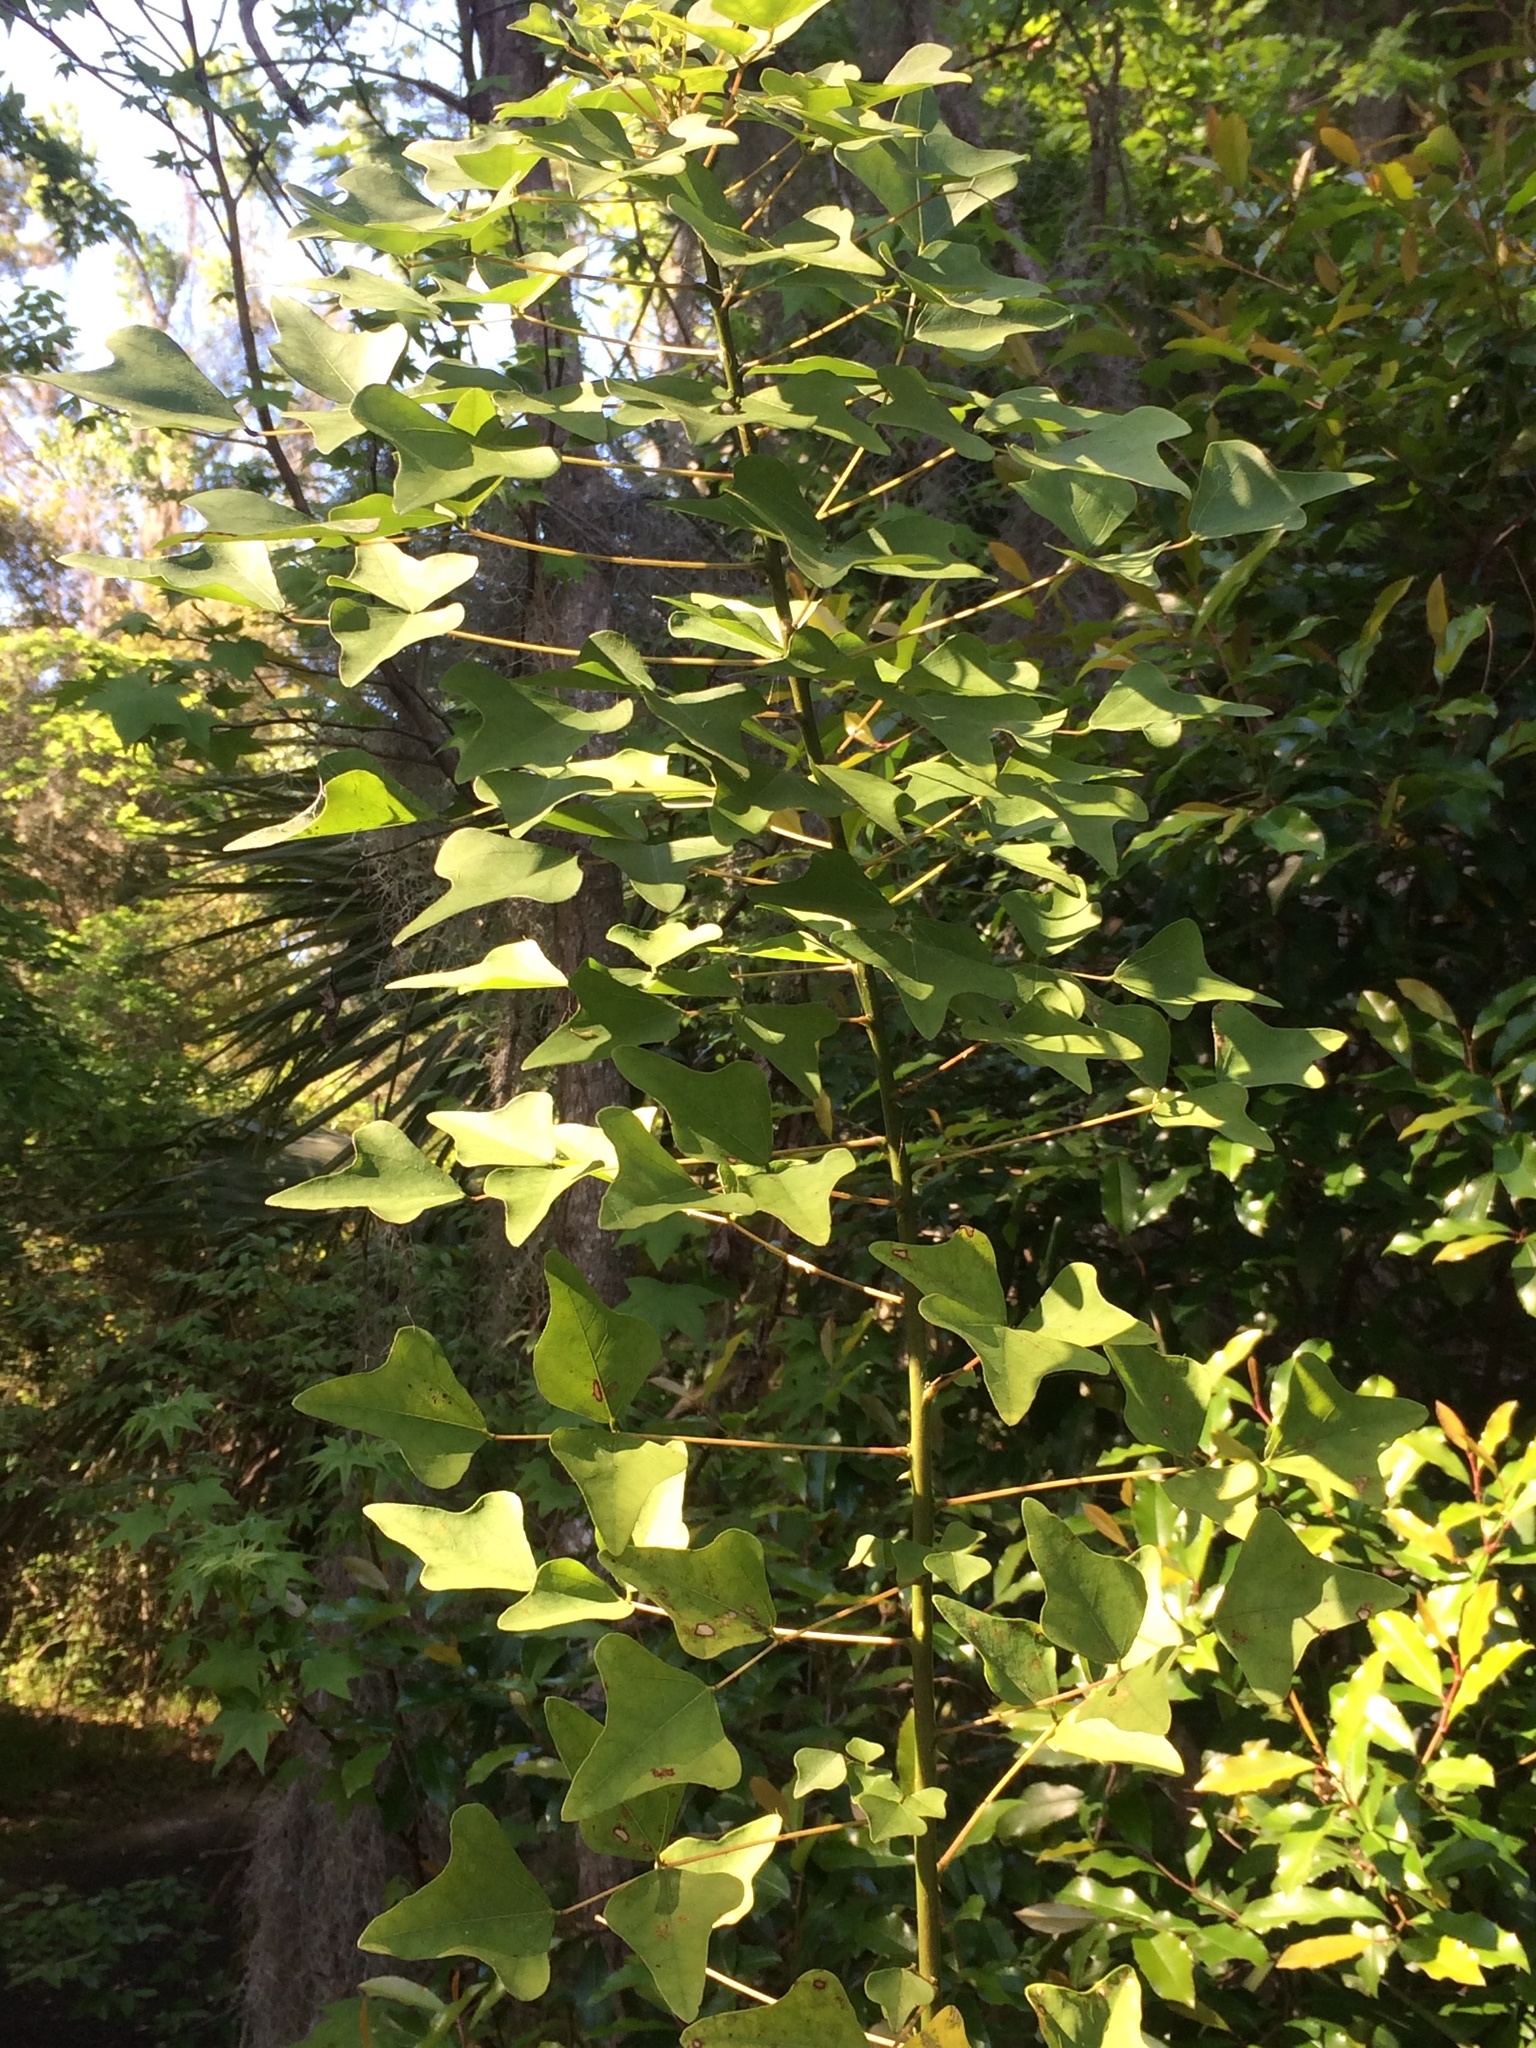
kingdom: Plantae
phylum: Tracheophyta
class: Magnoliopsida
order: Fabales
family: Fabaceae
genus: Erythrina
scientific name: Erythrina herbacea
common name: Coral-bean
